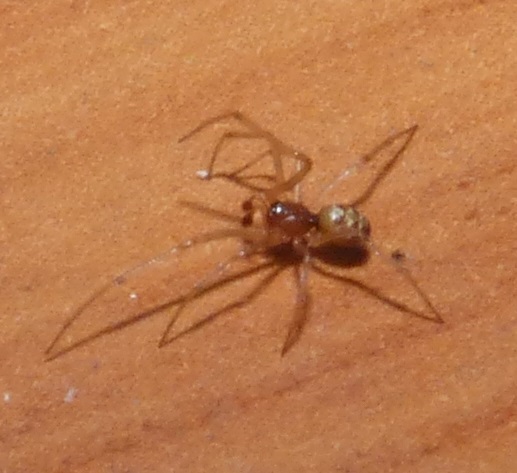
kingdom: Animalia
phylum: Arthropoda
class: Arachnida
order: Araneae
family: Theridiidae
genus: Steatoda
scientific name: Steatoda triangulosa
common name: Triangulate bud spider
